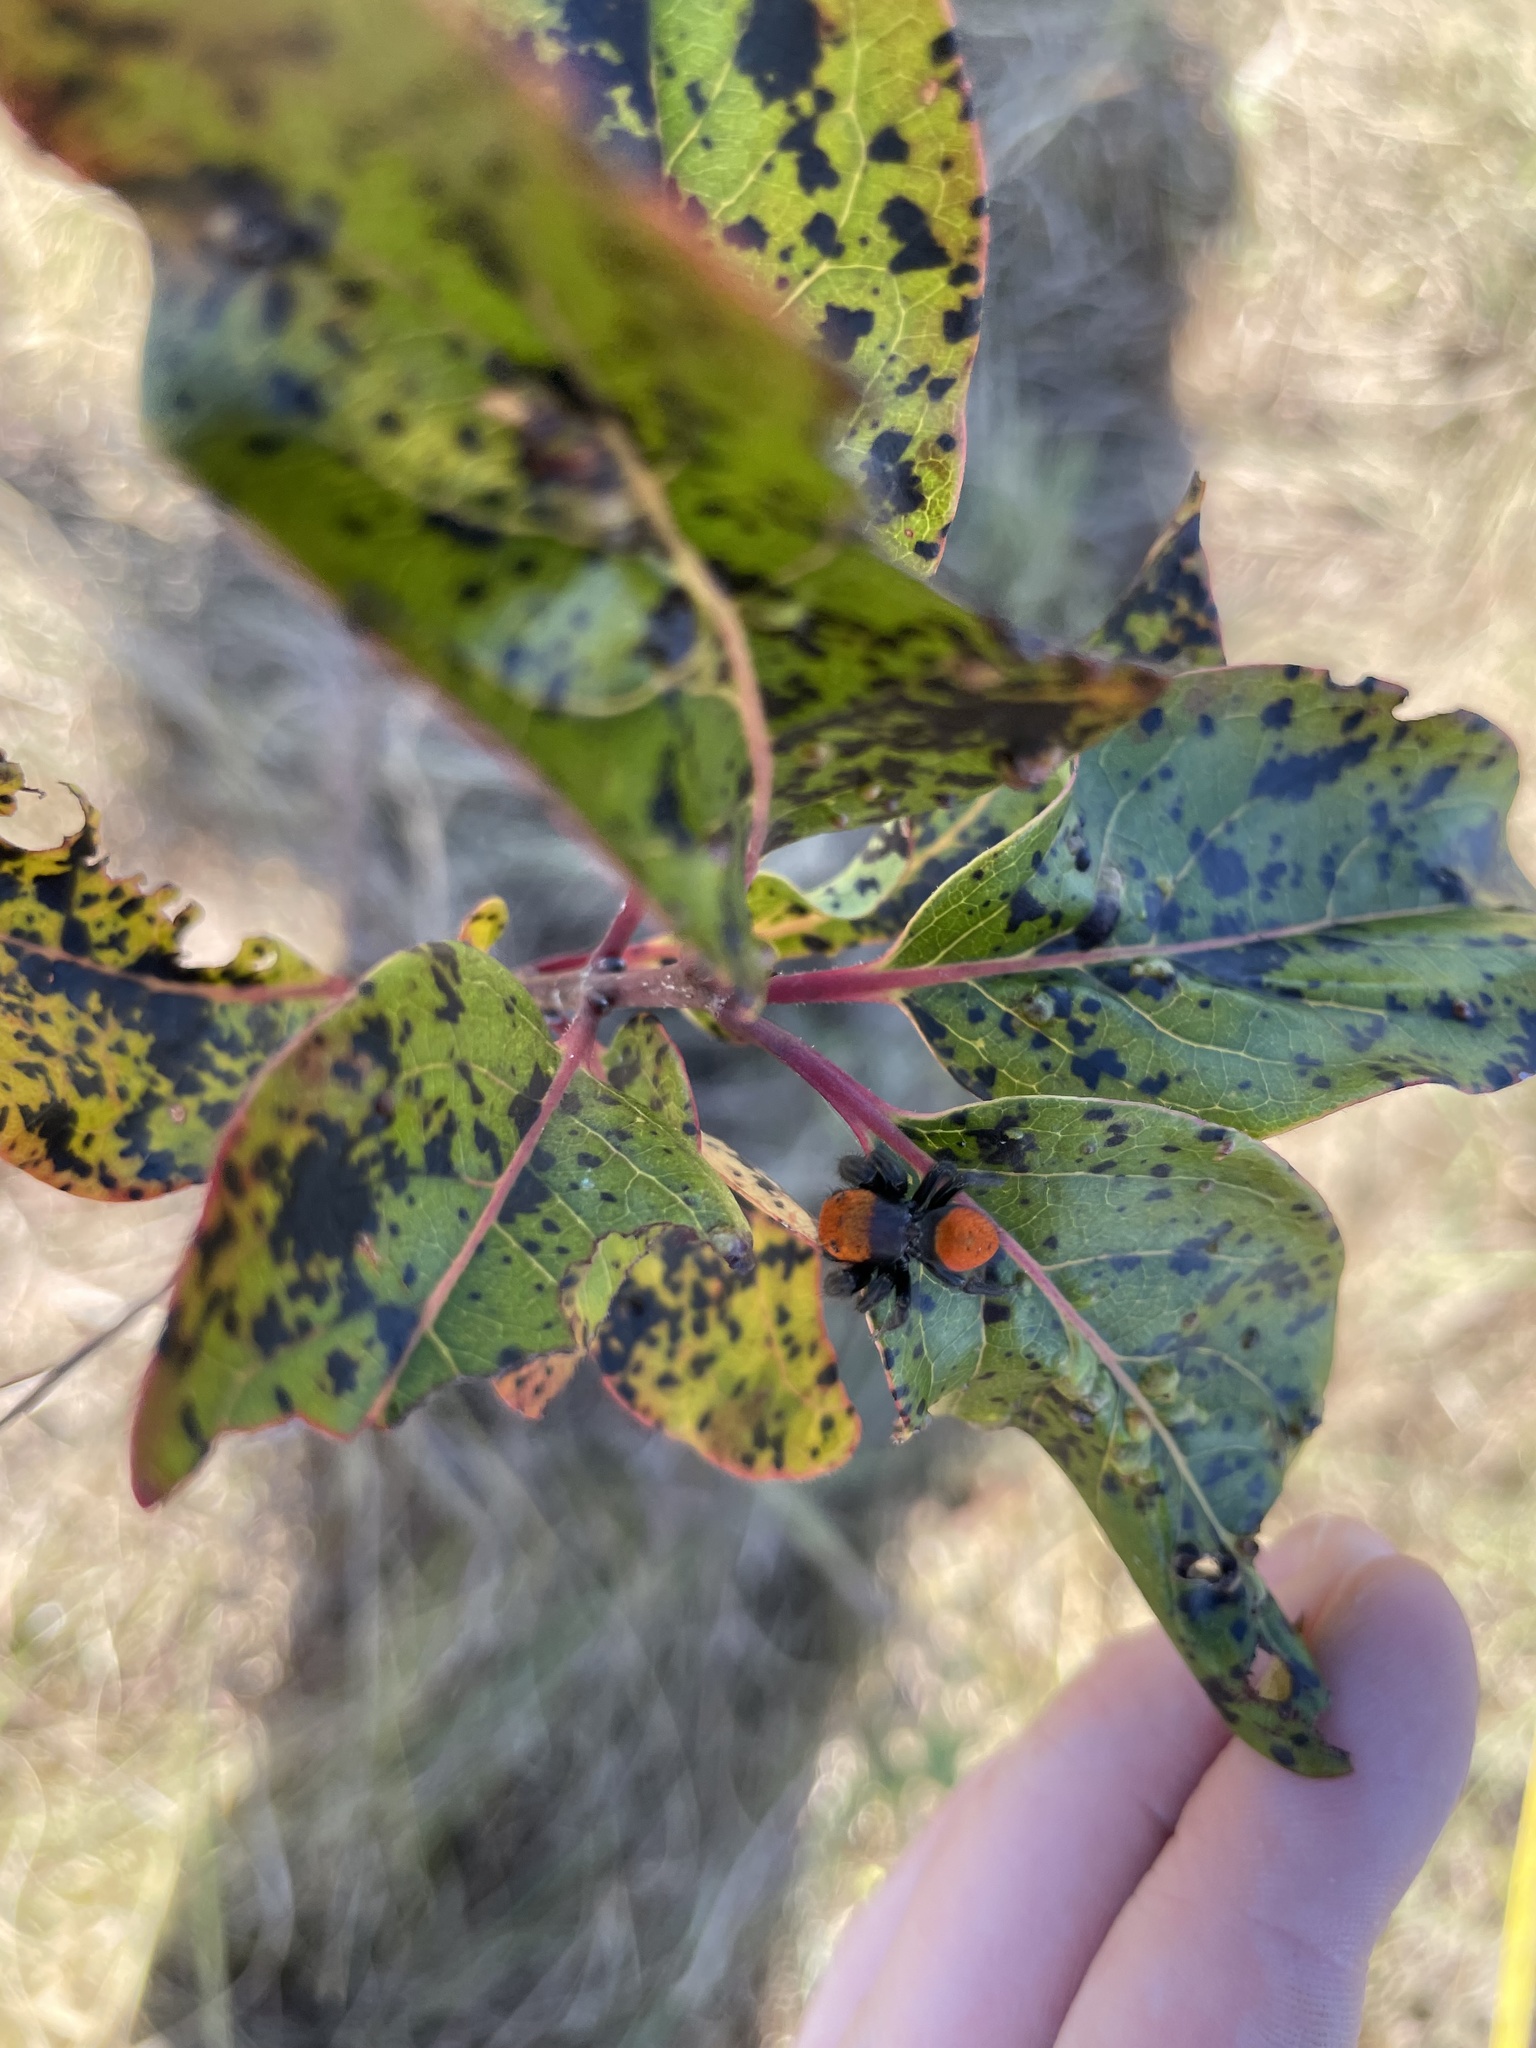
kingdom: Animalia
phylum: Arthropoda
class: Arachnida
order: Araneae
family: Salticidae
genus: Phidippus
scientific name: Phidippus cardinalis
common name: Cardinal jumper
